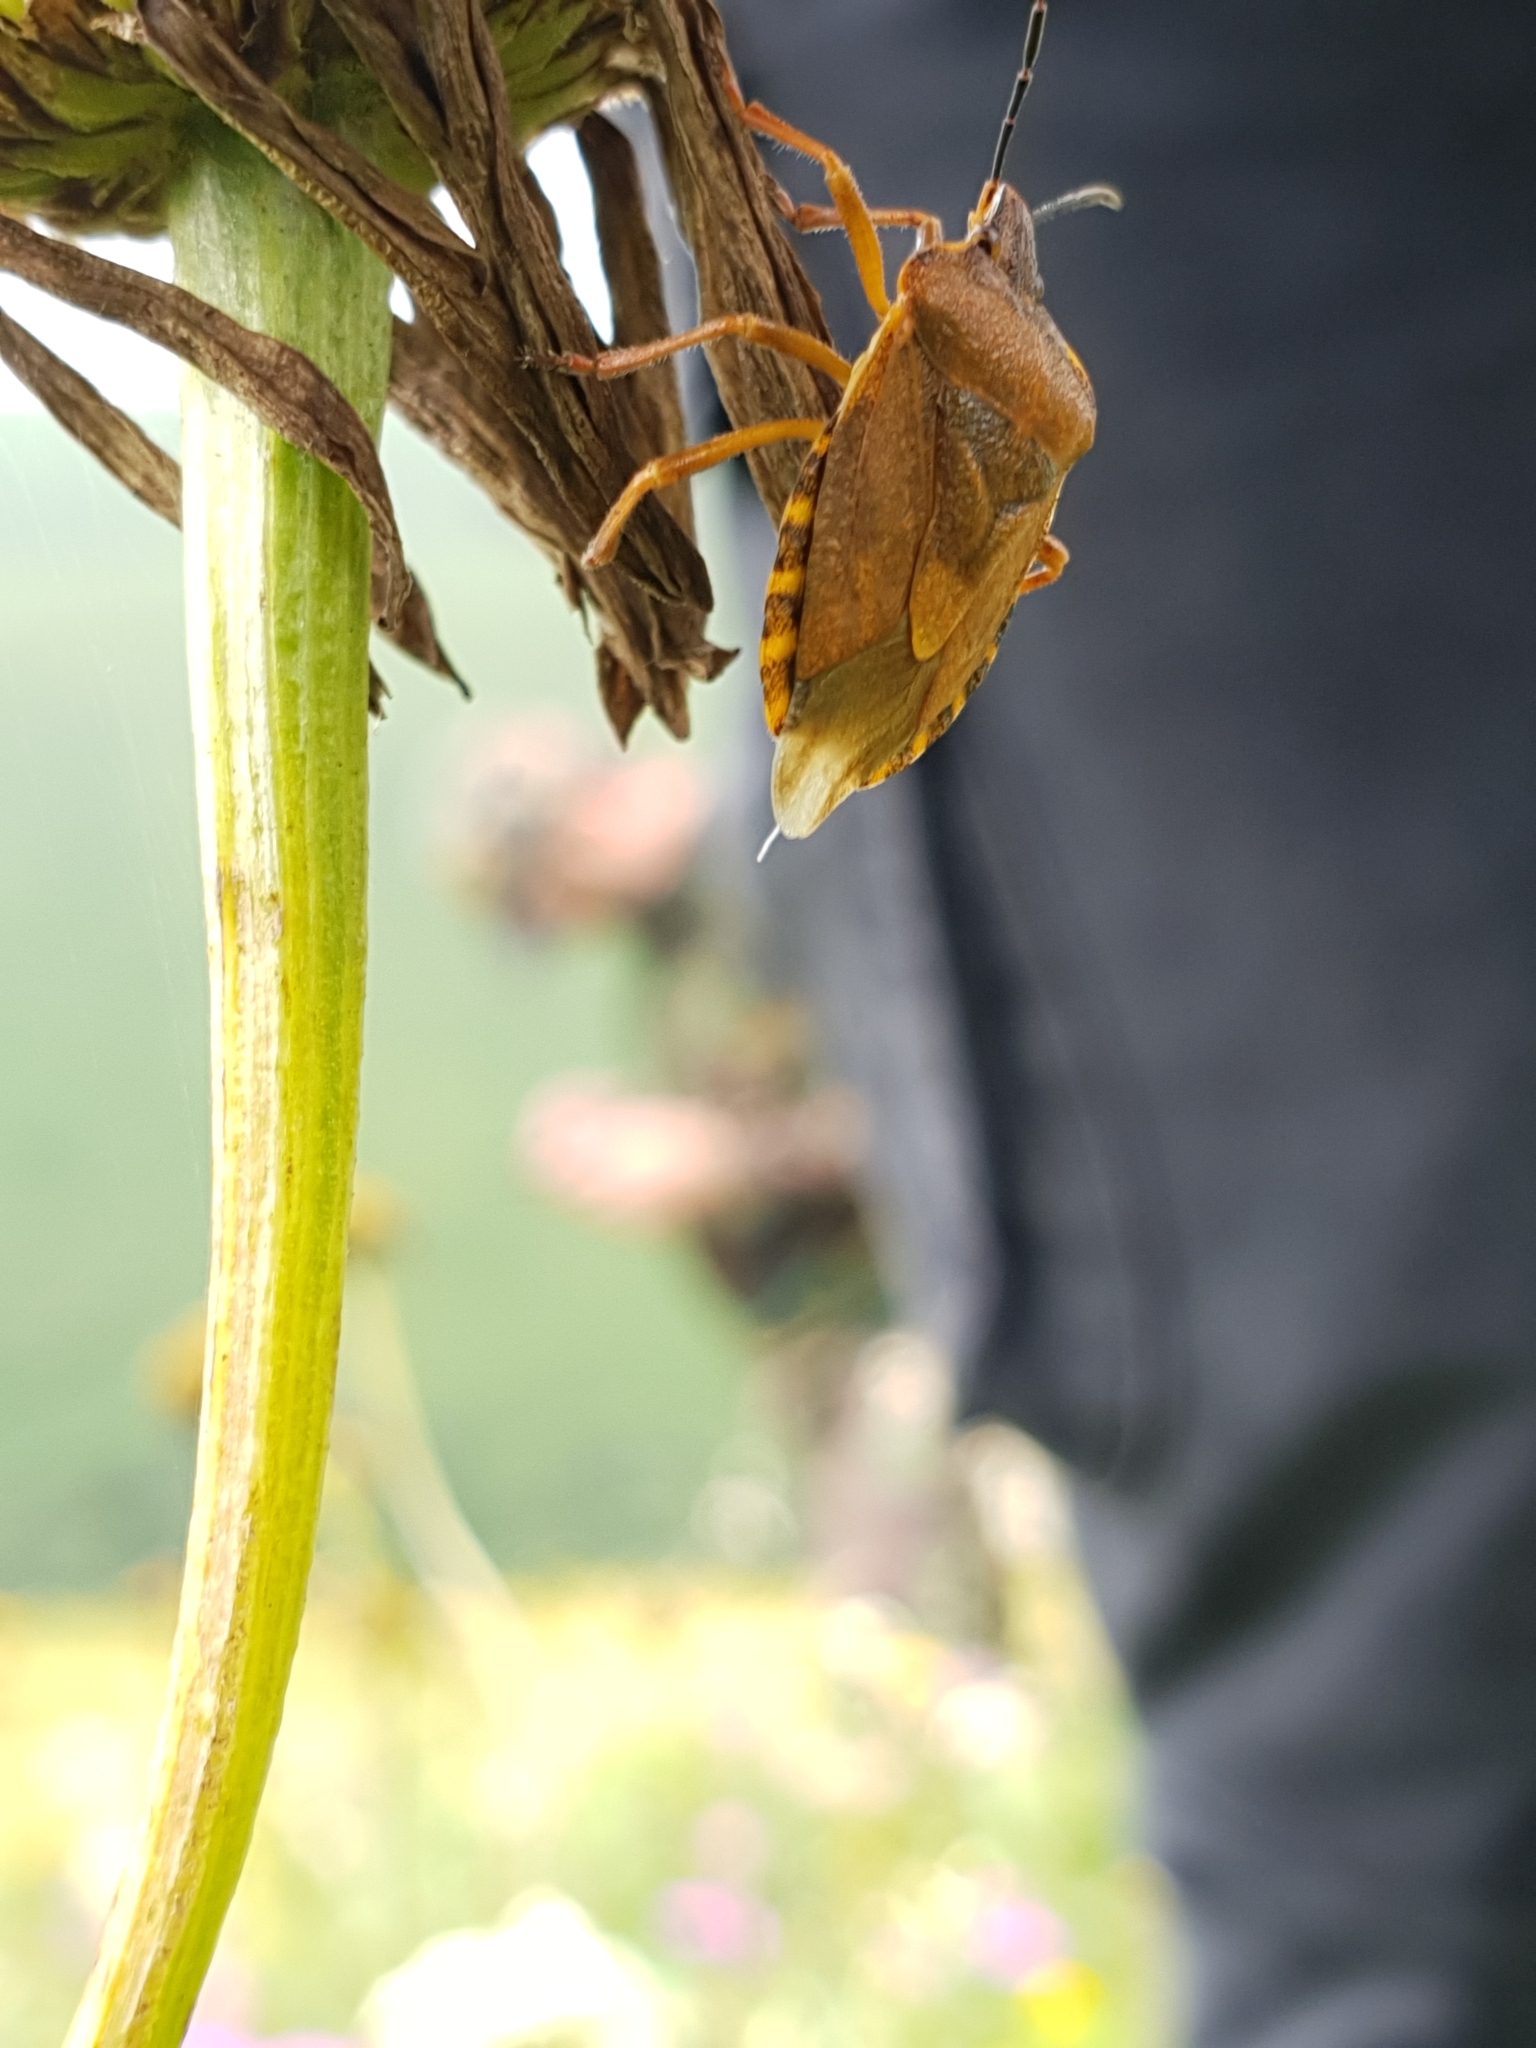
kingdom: Animalia
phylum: Arthropoda
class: Insecta
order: Hemiptera
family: Pentatomidae
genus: Carpocoris
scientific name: Carpocoris melanocerus
